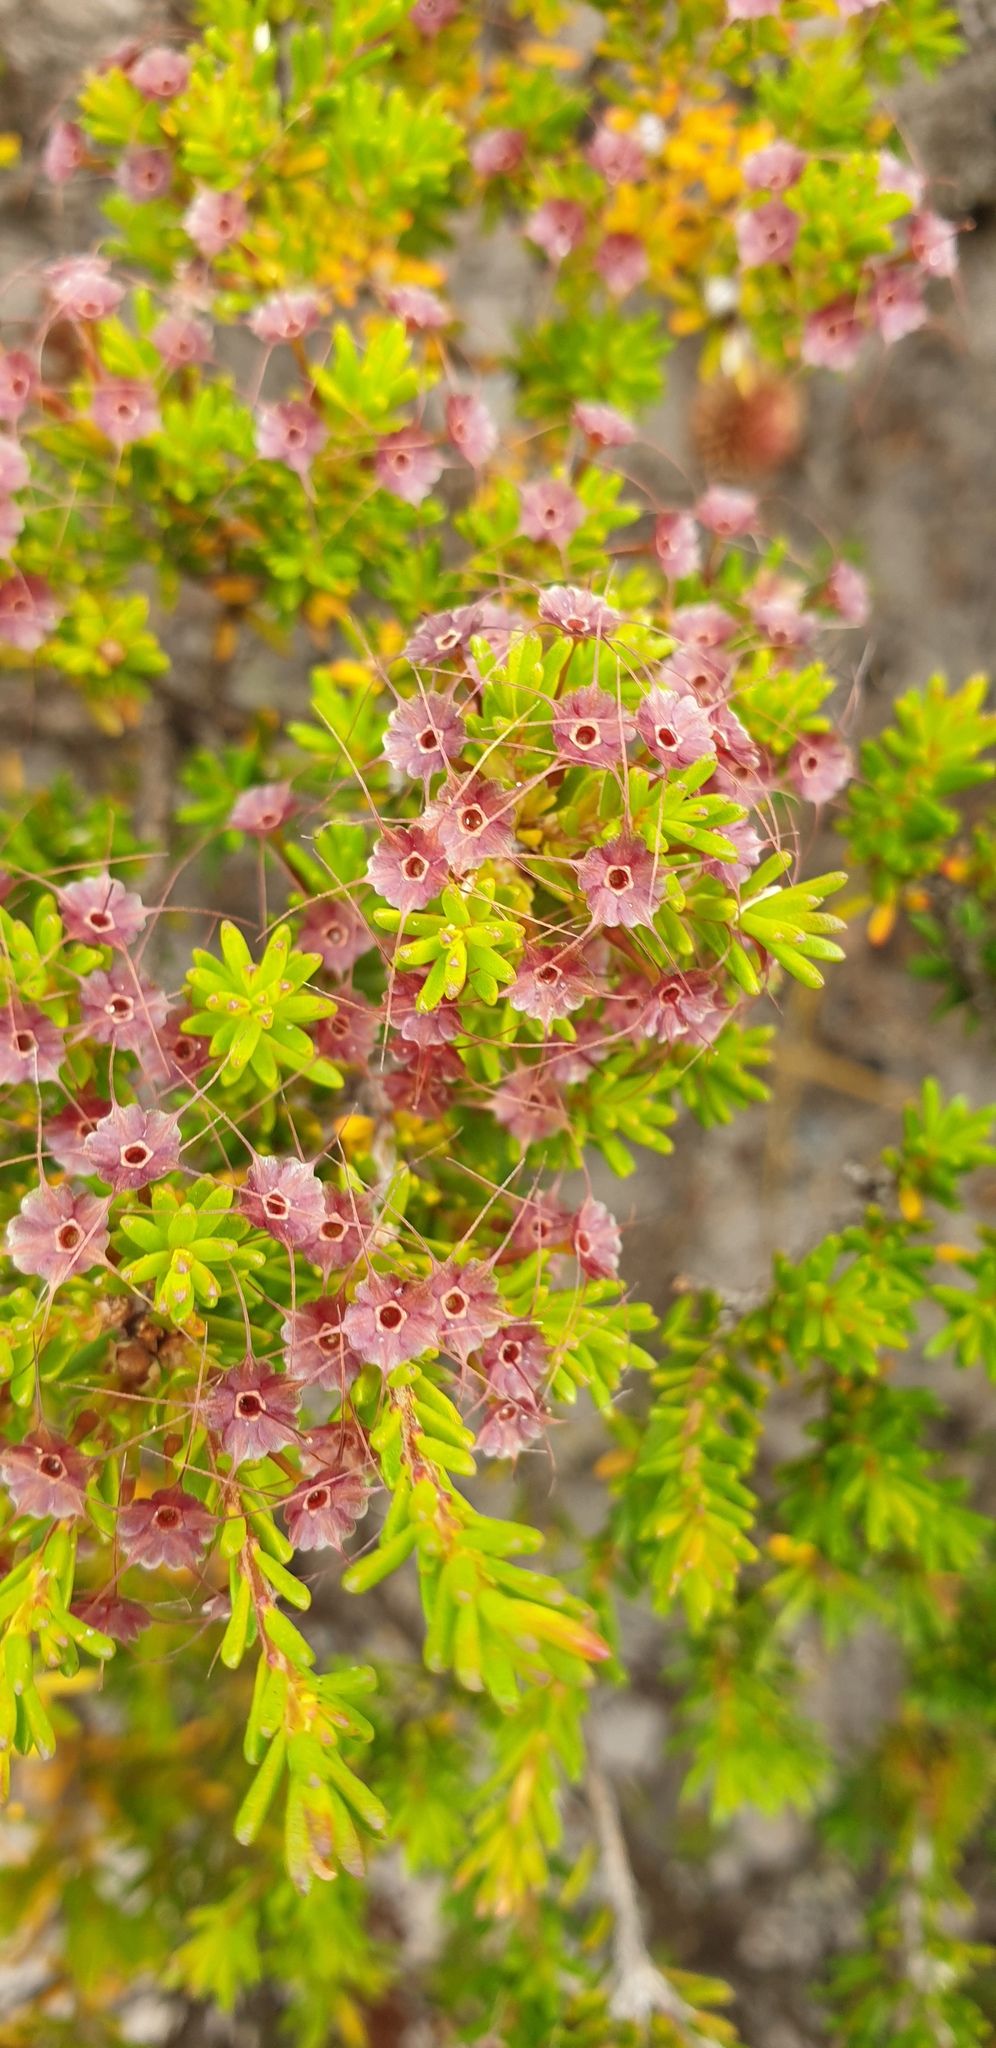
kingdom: Plantae
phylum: Tracheophyta
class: Magnoliopsida
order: Myrtales
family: Myrtaceae
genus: Calytrix
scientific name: Calytrix tetragona
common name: Common fringe myrtle
